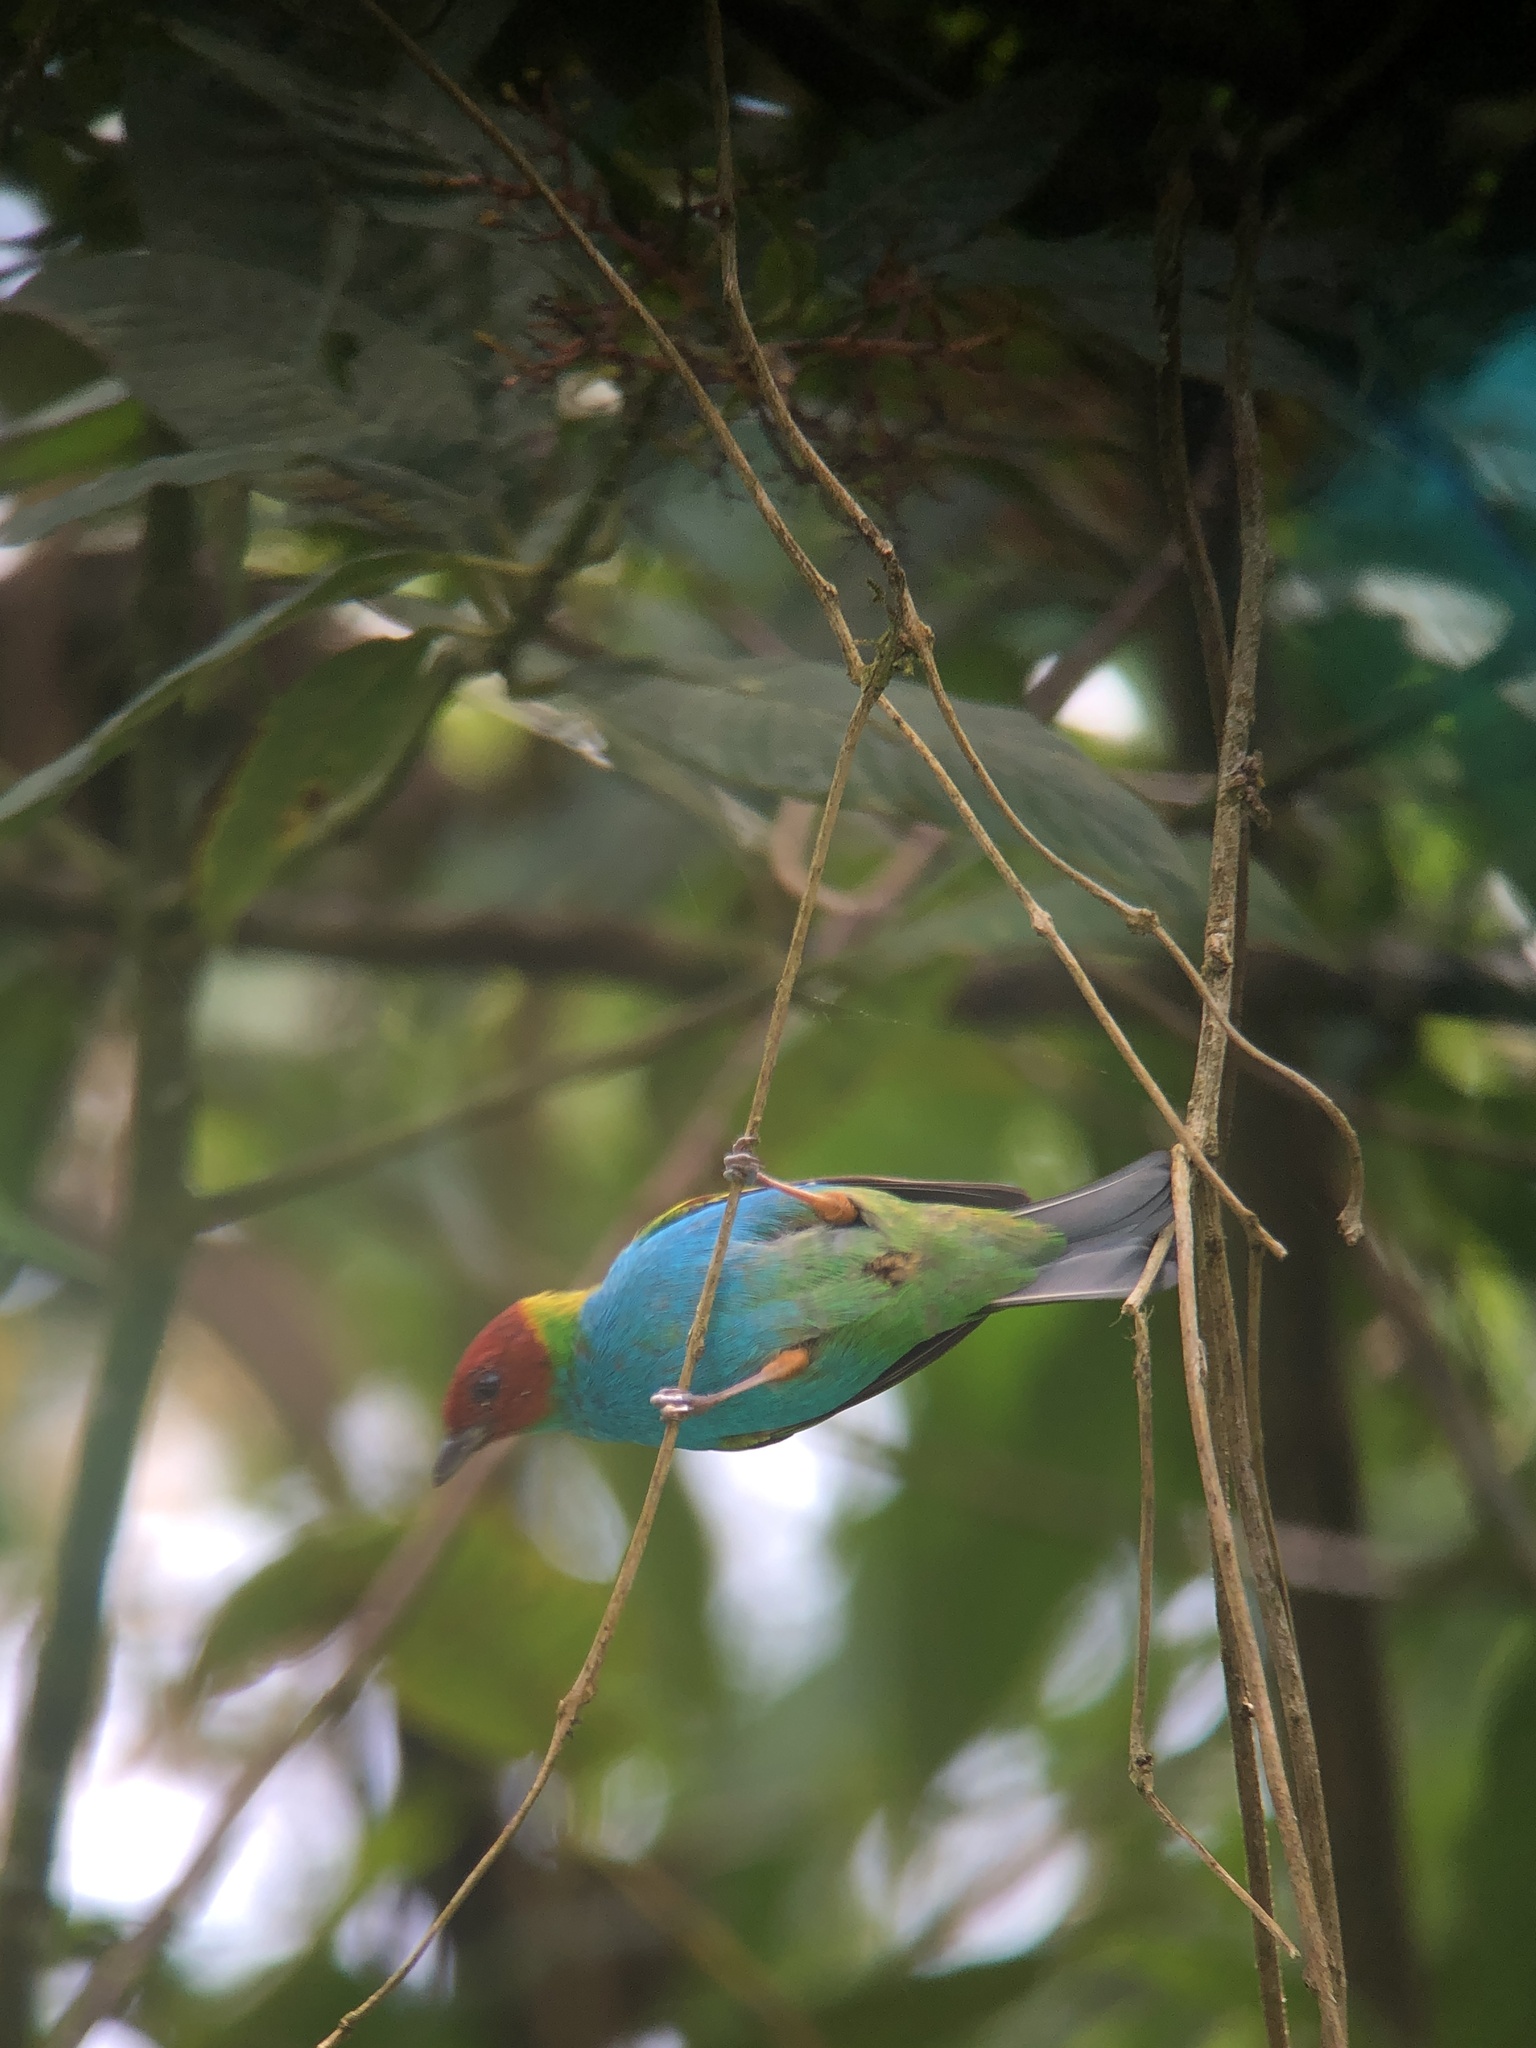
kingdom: Animalia
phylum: Chordata
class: Aves
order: Passeriformes
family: Thraupidae
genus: Tangara
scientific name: Tangara gyrola
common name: Bay-headed tanager
